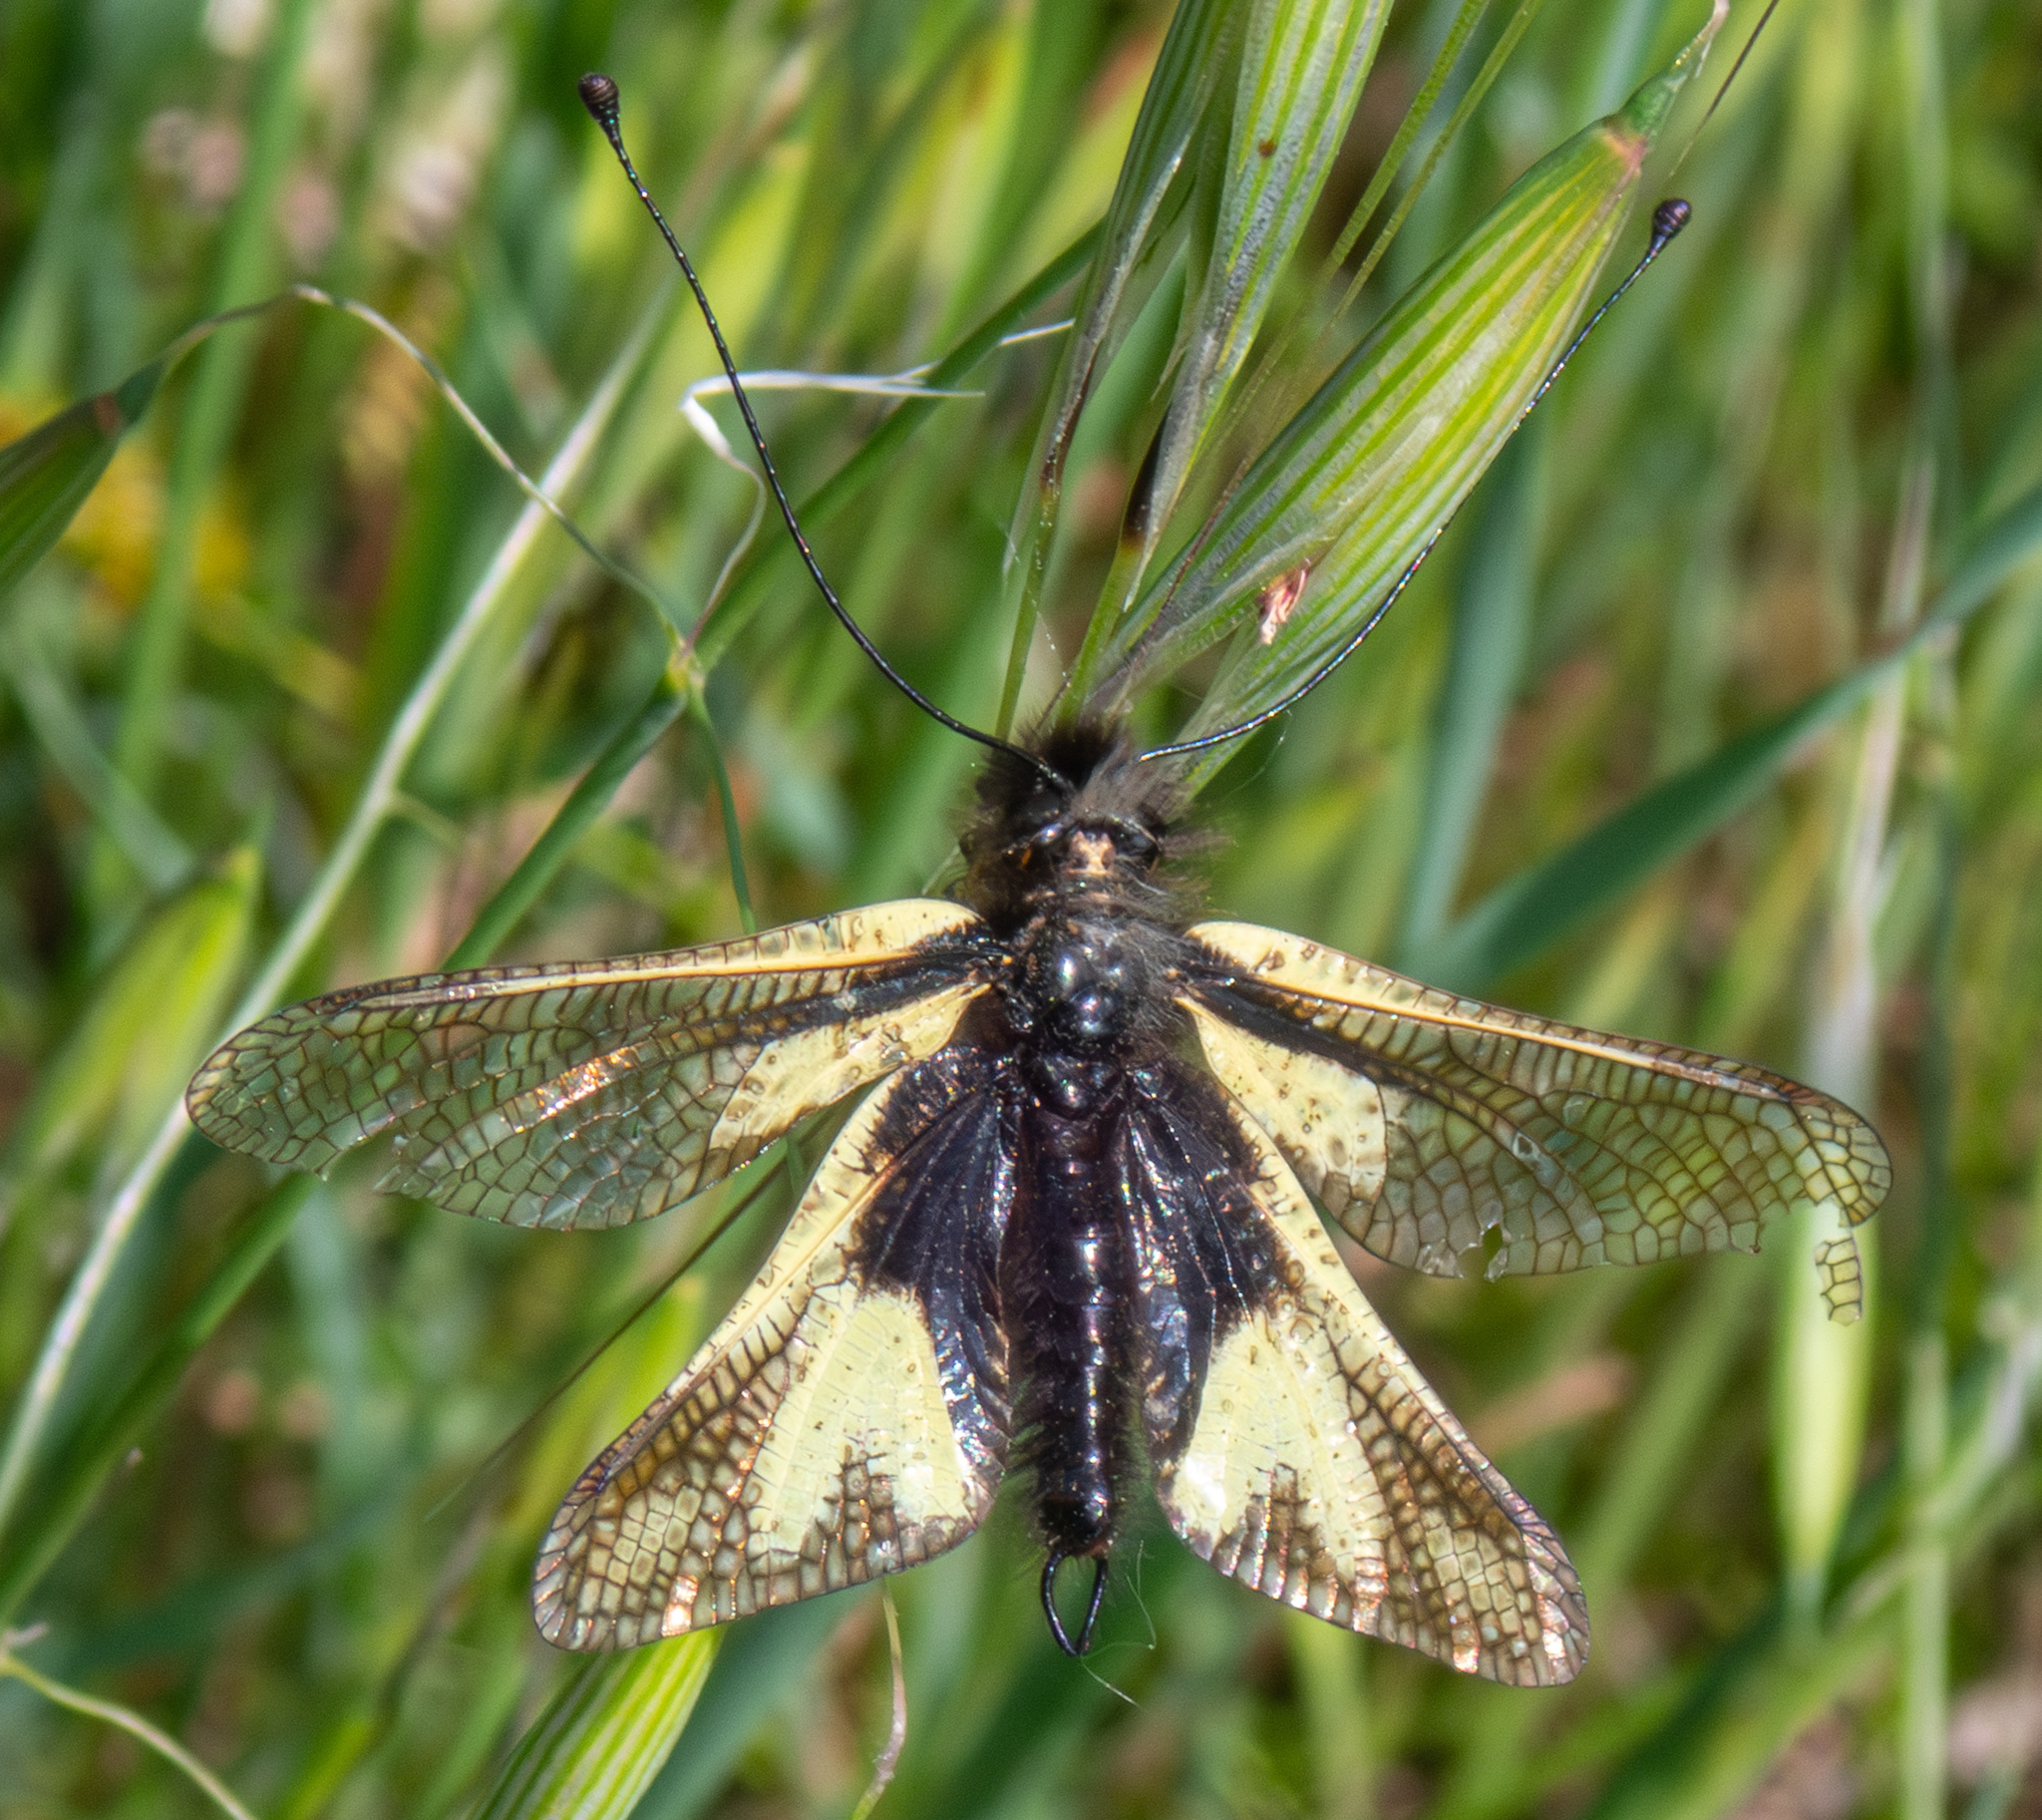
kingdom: Animalia
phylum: Arthropoda
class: Insecta
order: Neuroptera
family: Ascalaphidae
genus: Libelloides
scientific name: Libelloides coccajus
